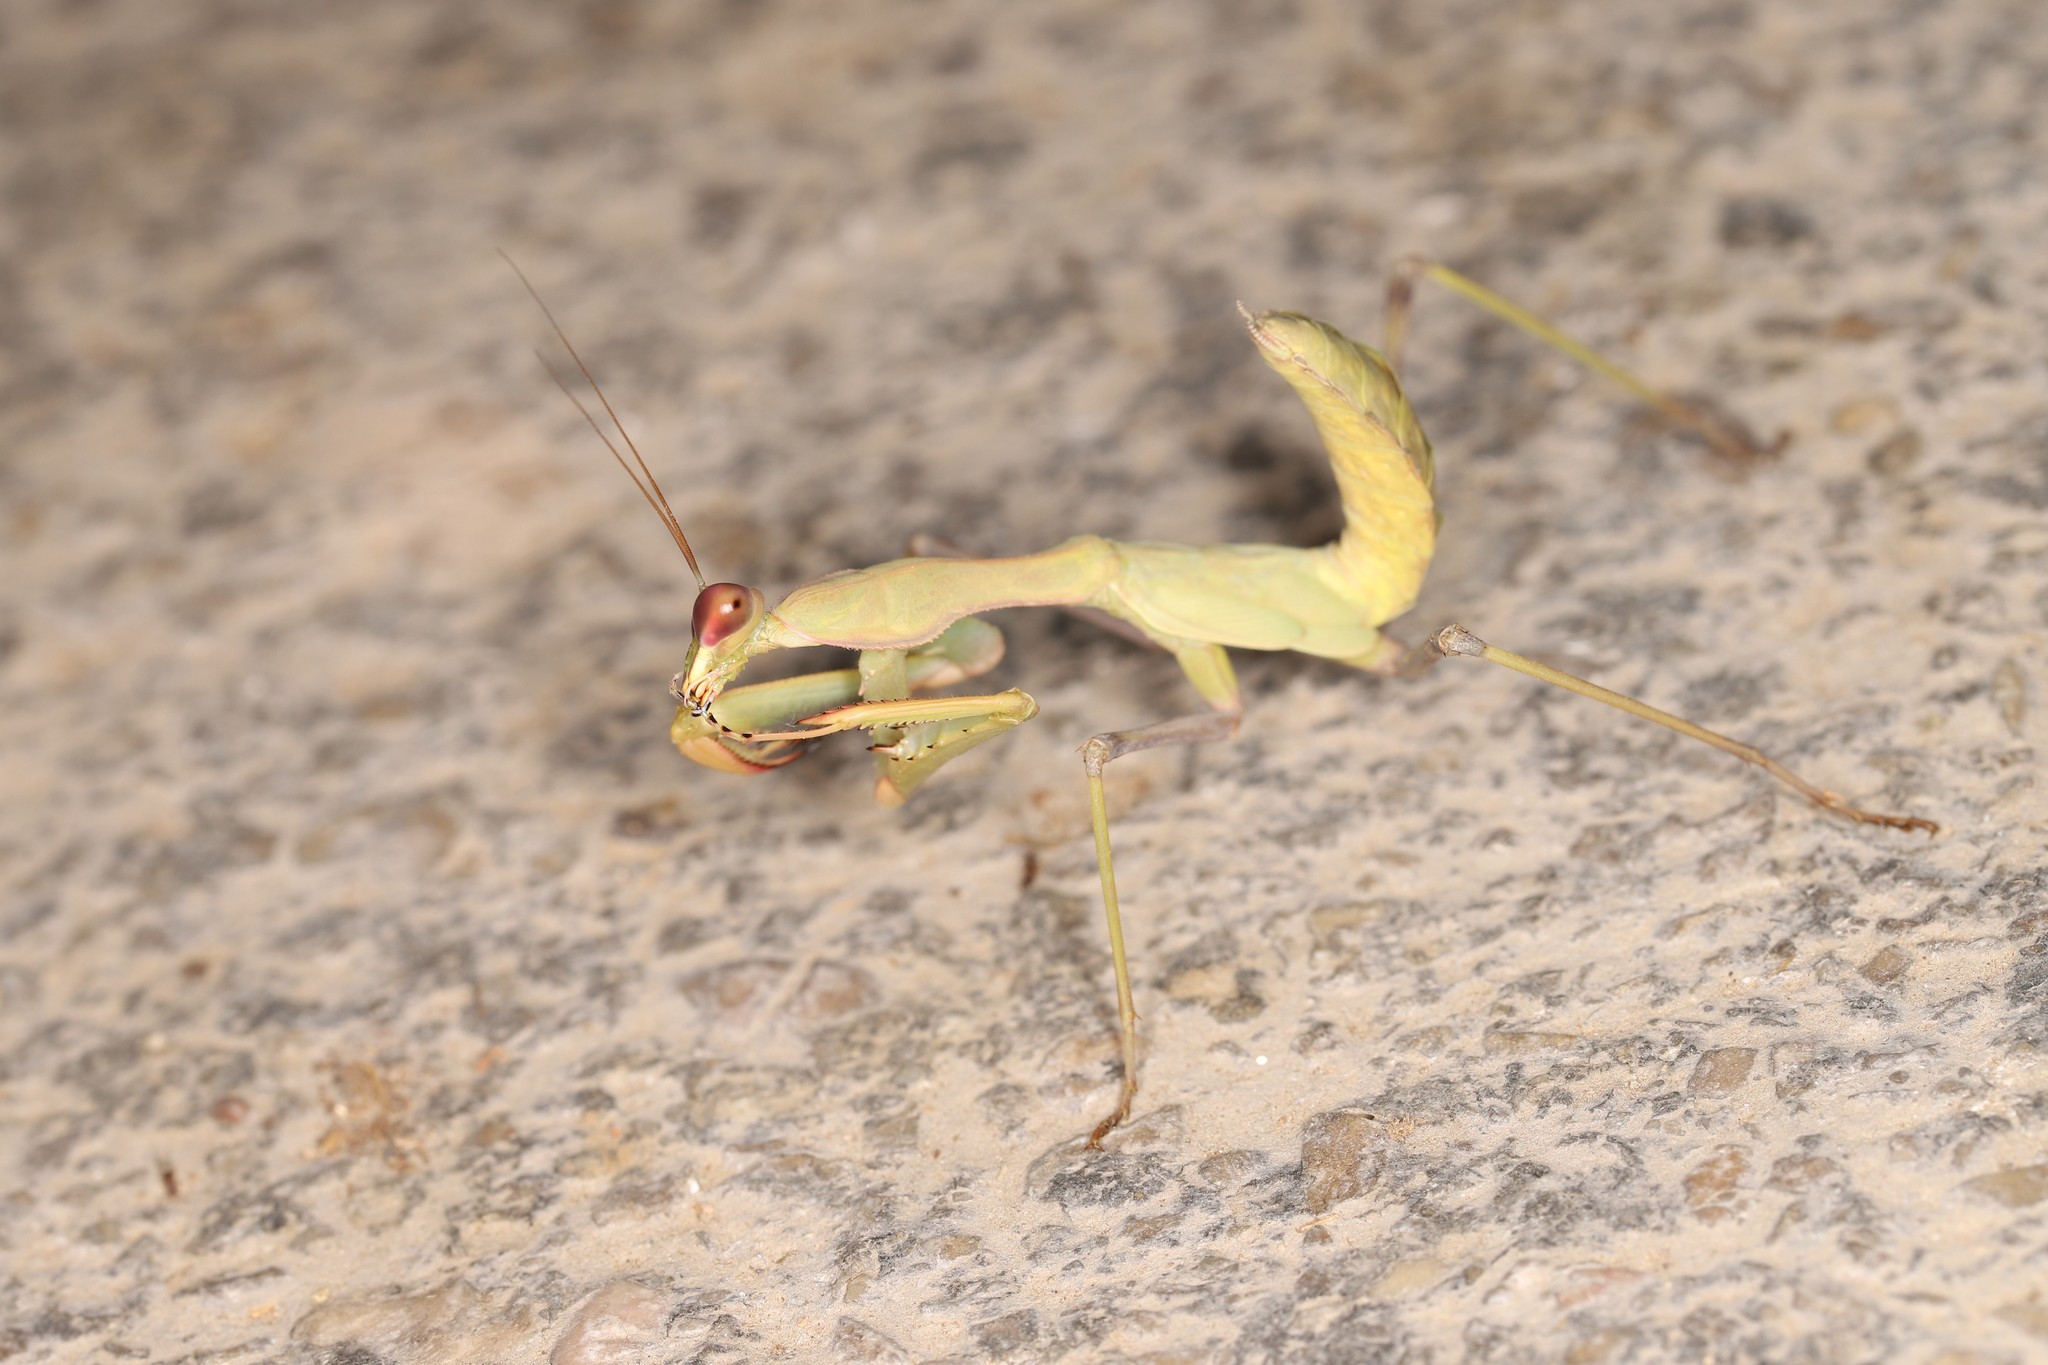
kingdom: Animalia
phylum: Arthropoda
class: Insecta
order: Mantodea
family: Mantidae
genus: Hierodula
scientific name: Hierodula trimacula
